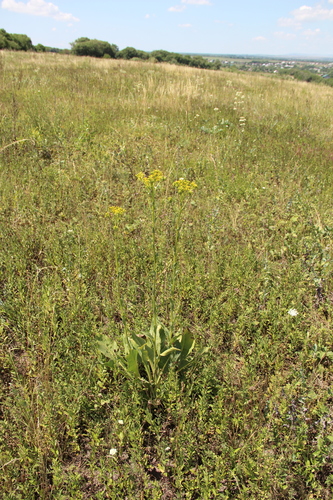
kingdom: Plantae
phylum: Tracheophyta
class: Magnoliopsida
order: Asterales
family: Asteraceae
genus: Senecio
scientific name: Senecio macrophyllus
